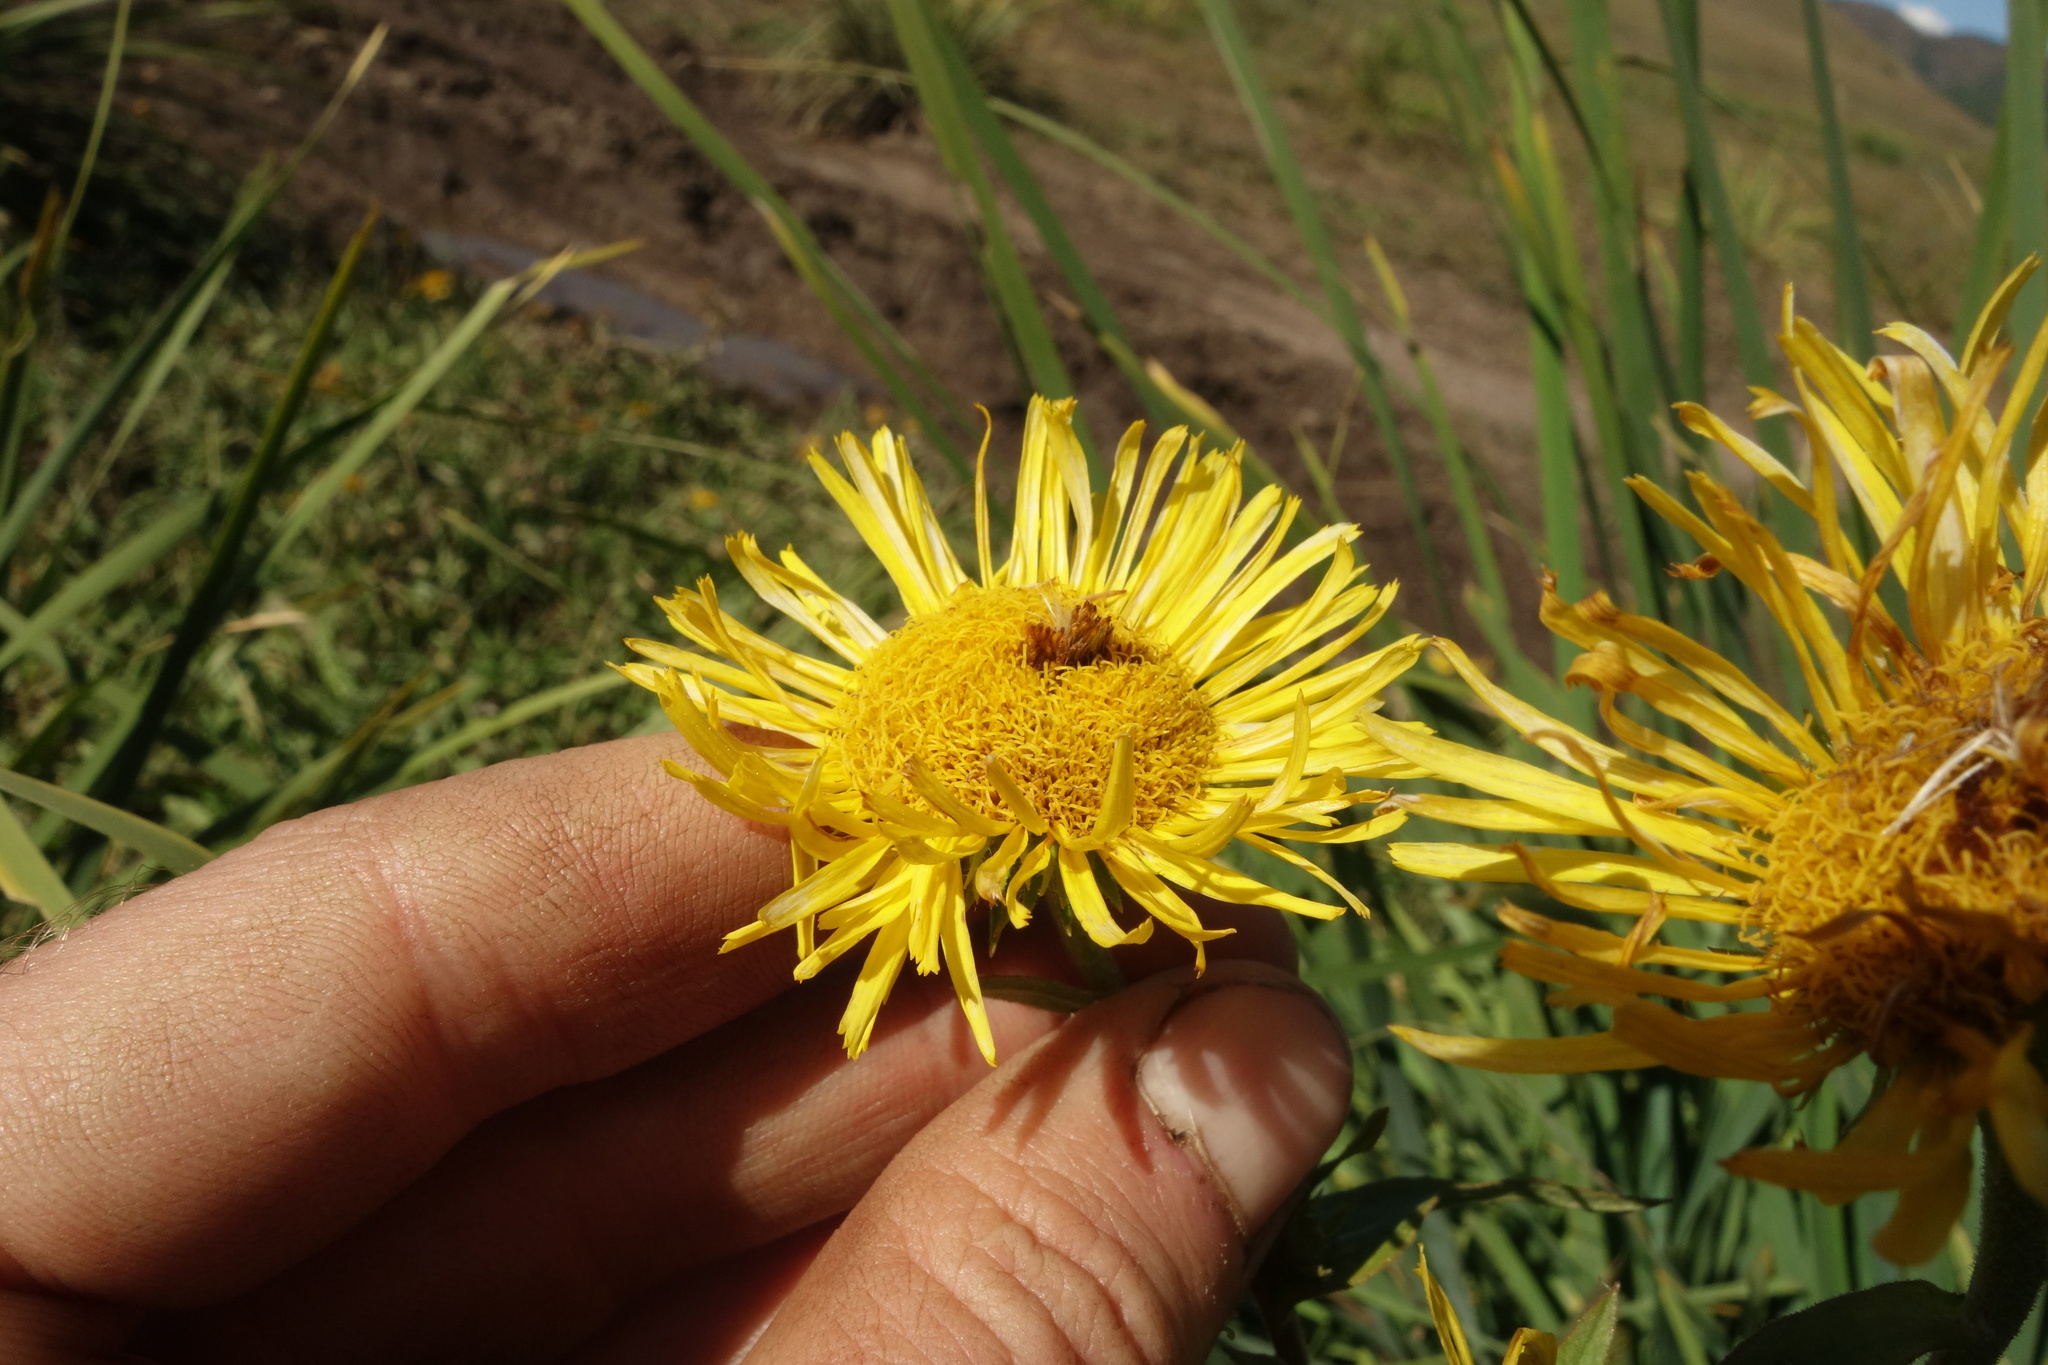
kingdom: Plantae
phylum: Tracheophyta
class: Magnoliopsida
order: Asterales
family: Asteraceae
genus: Pentanema
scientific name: Pentanema britannicum
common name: British elecampane
